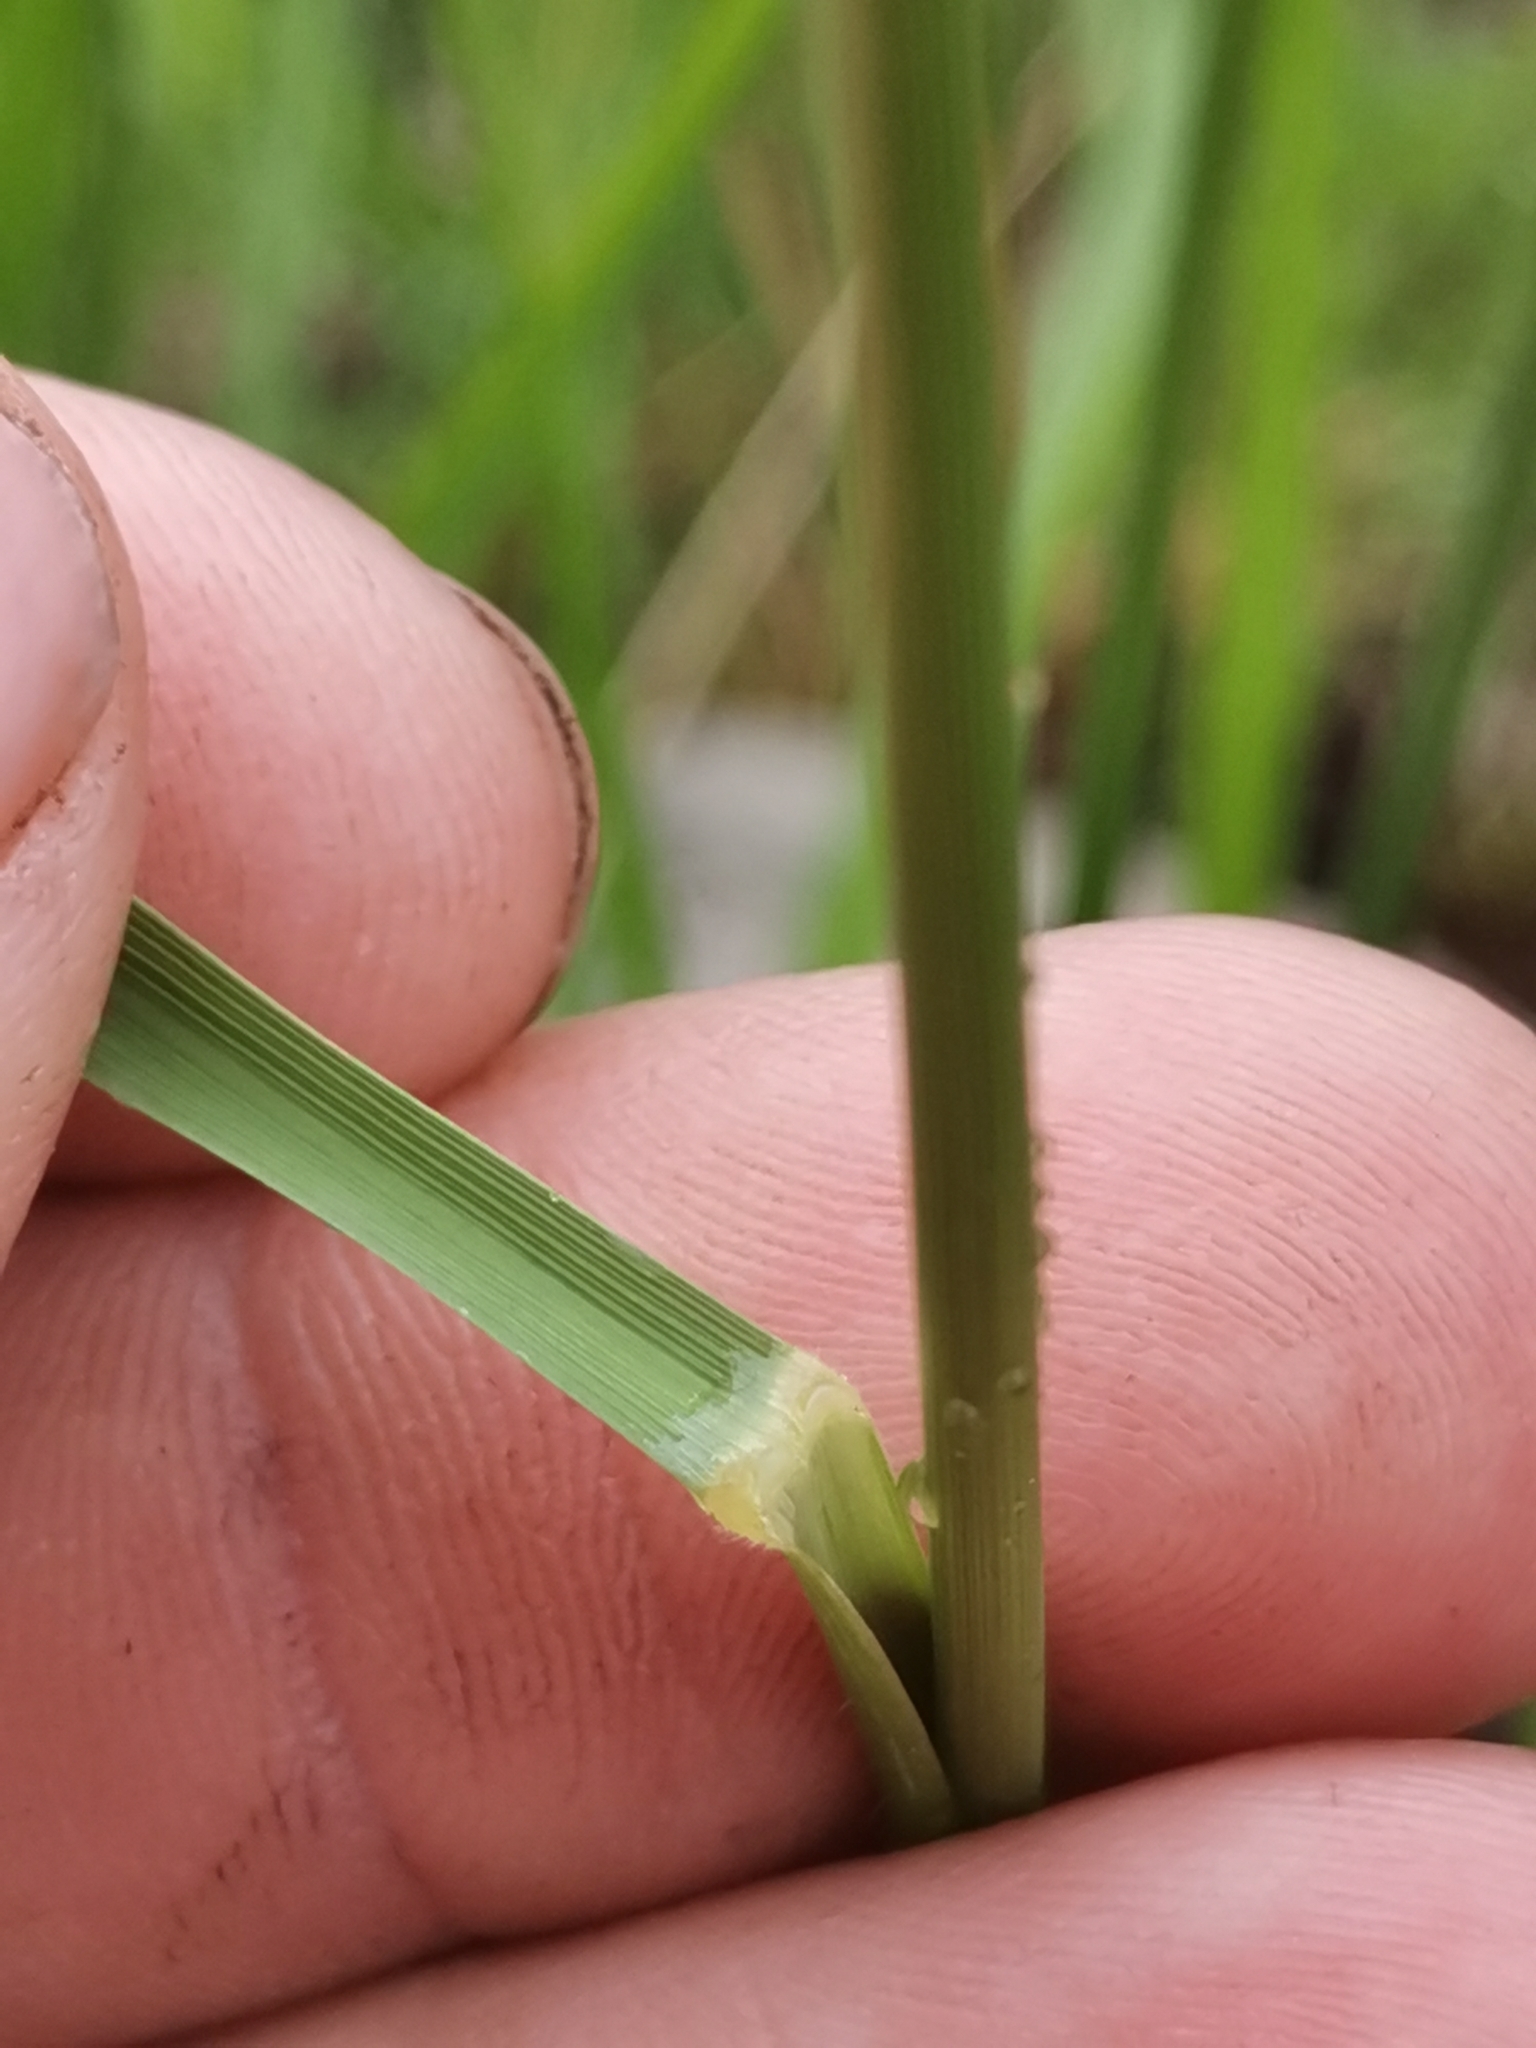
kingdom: Plantae
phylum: Tracheophyta
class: Liliopsida
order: Poales
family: Poaceae
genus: Brachypodium
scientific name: Brachypodium pinnatum
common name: Tor grass
